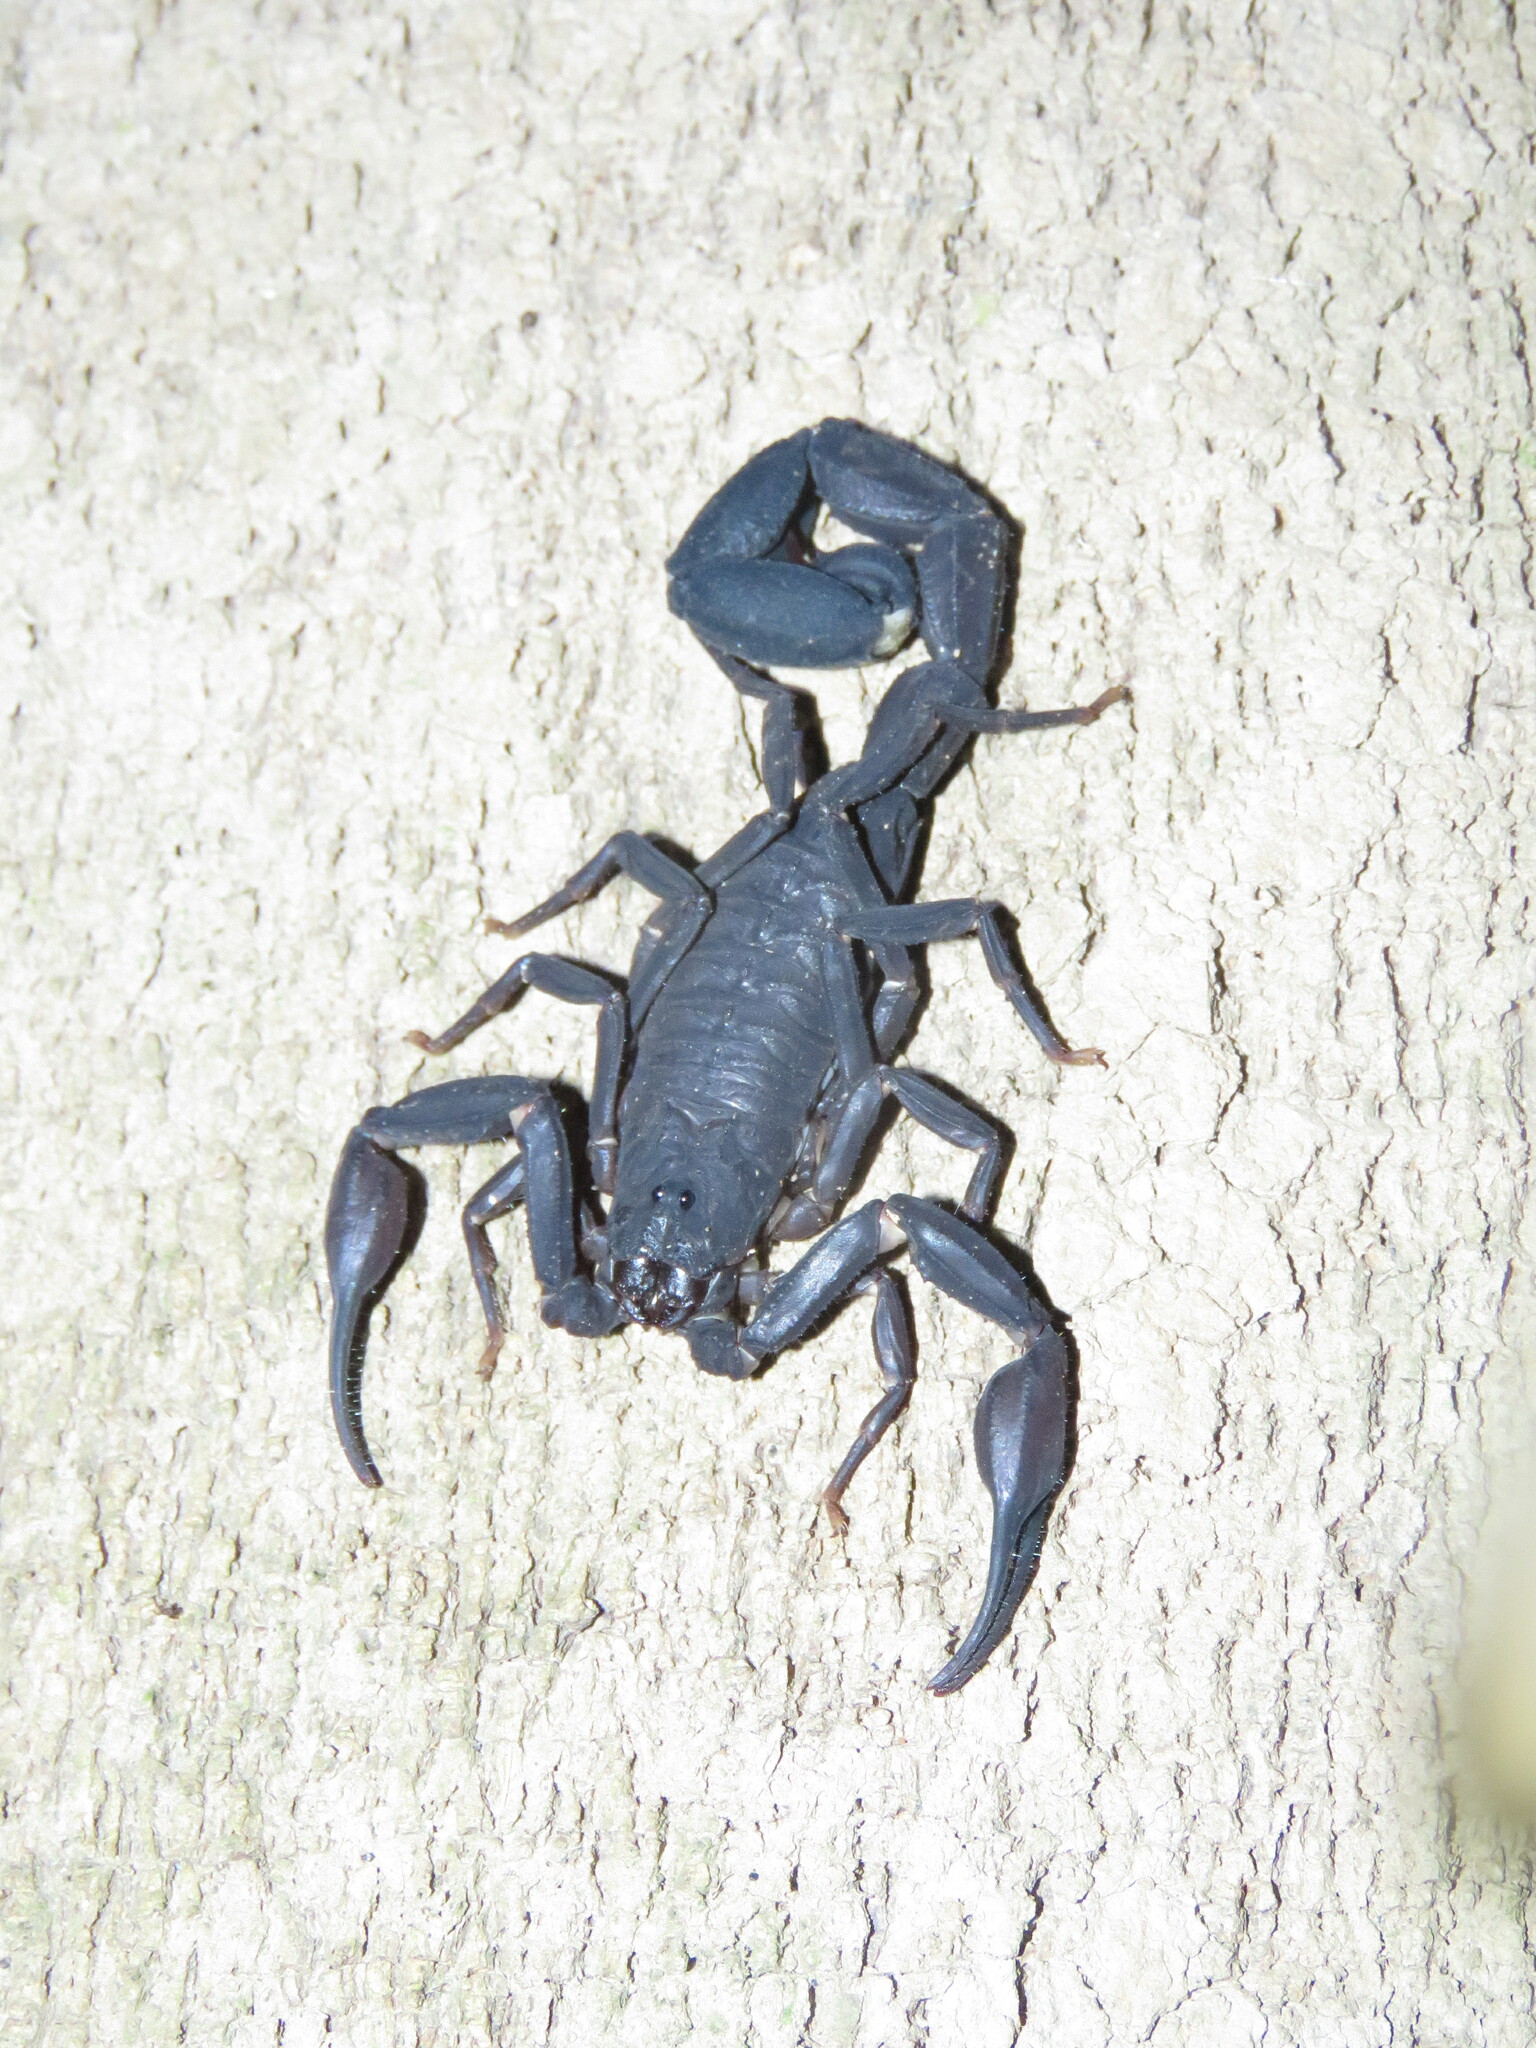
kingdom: Animalia
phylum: Arthropoda
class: Arachnida
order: Scorpiones
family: Buthidae
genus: Tityus
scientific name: Tityus metuendus
